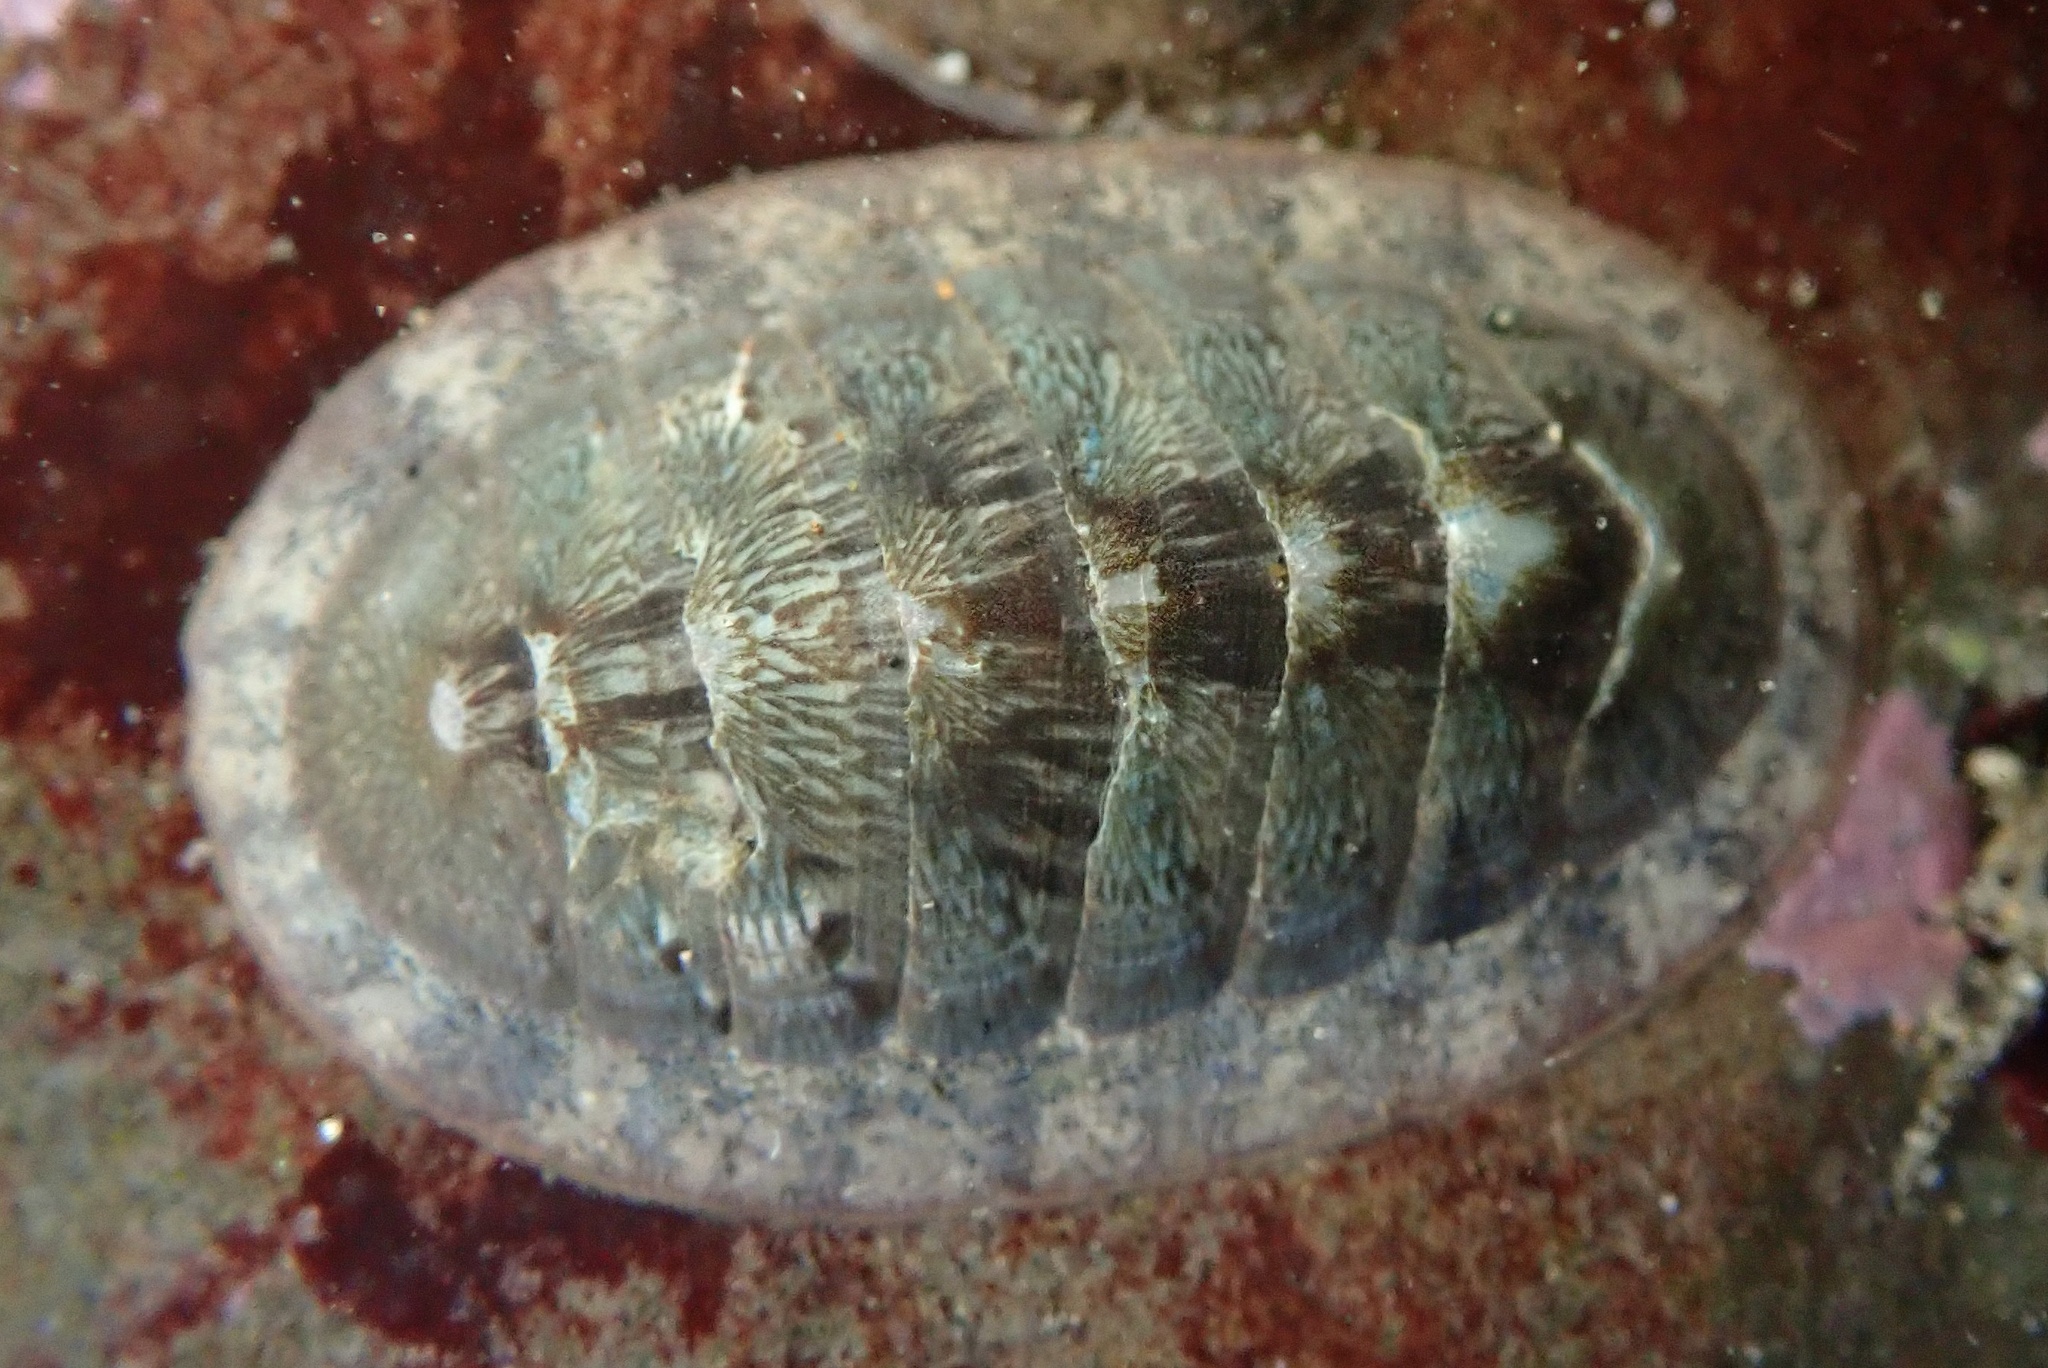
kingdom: Animalia
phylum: Mollusca
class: Polyplacophora
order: Chitonida
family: Ischnochitonidae
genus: Lepidozona
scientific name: Lepidozona radians
